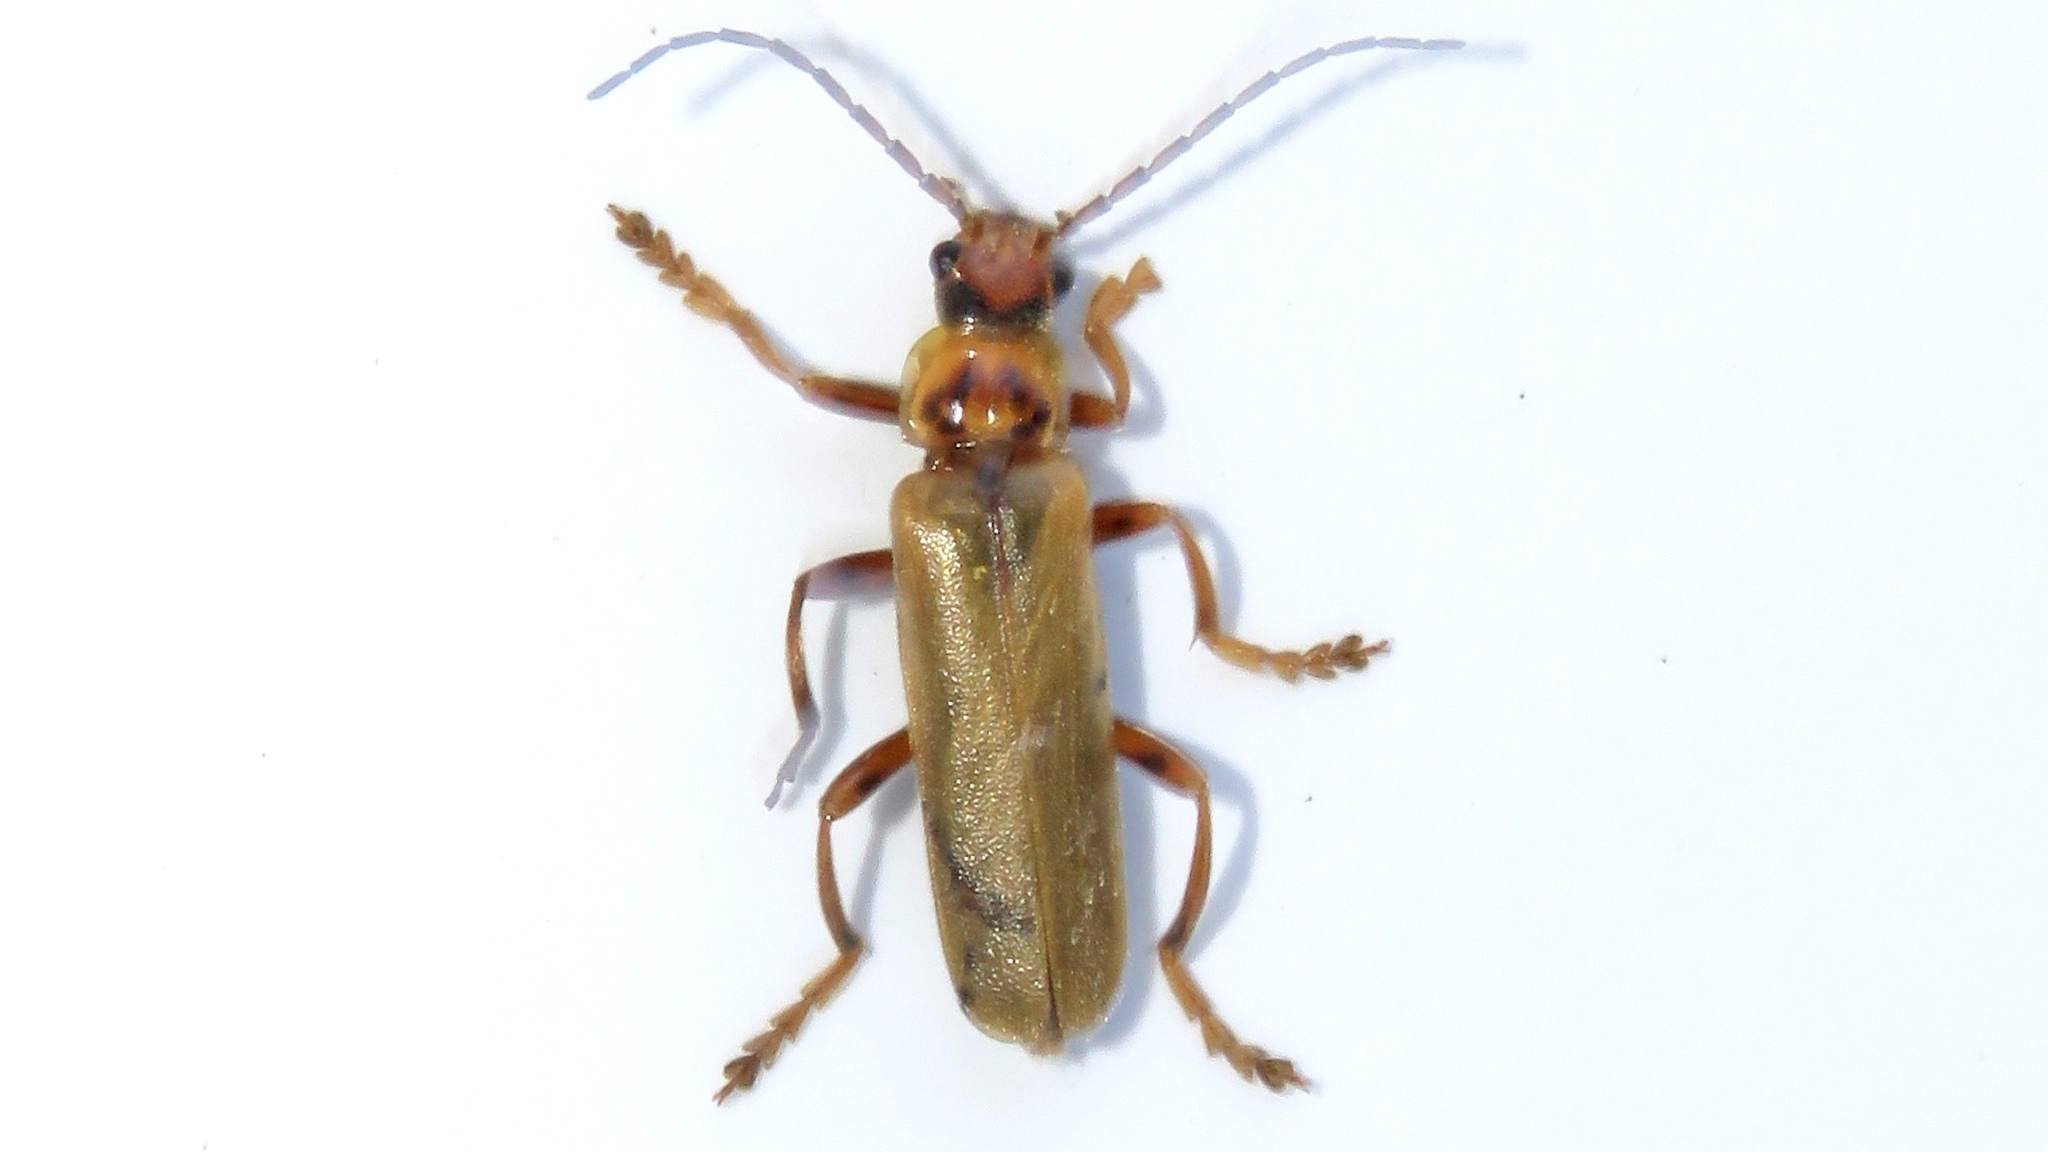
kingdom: Animalia
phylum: Arthropoda
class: Insecta
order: Coleoptera
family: Cantharidae
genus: Cantharis
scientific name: Cantharis rufa
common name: Red-spotted soldier beetle
